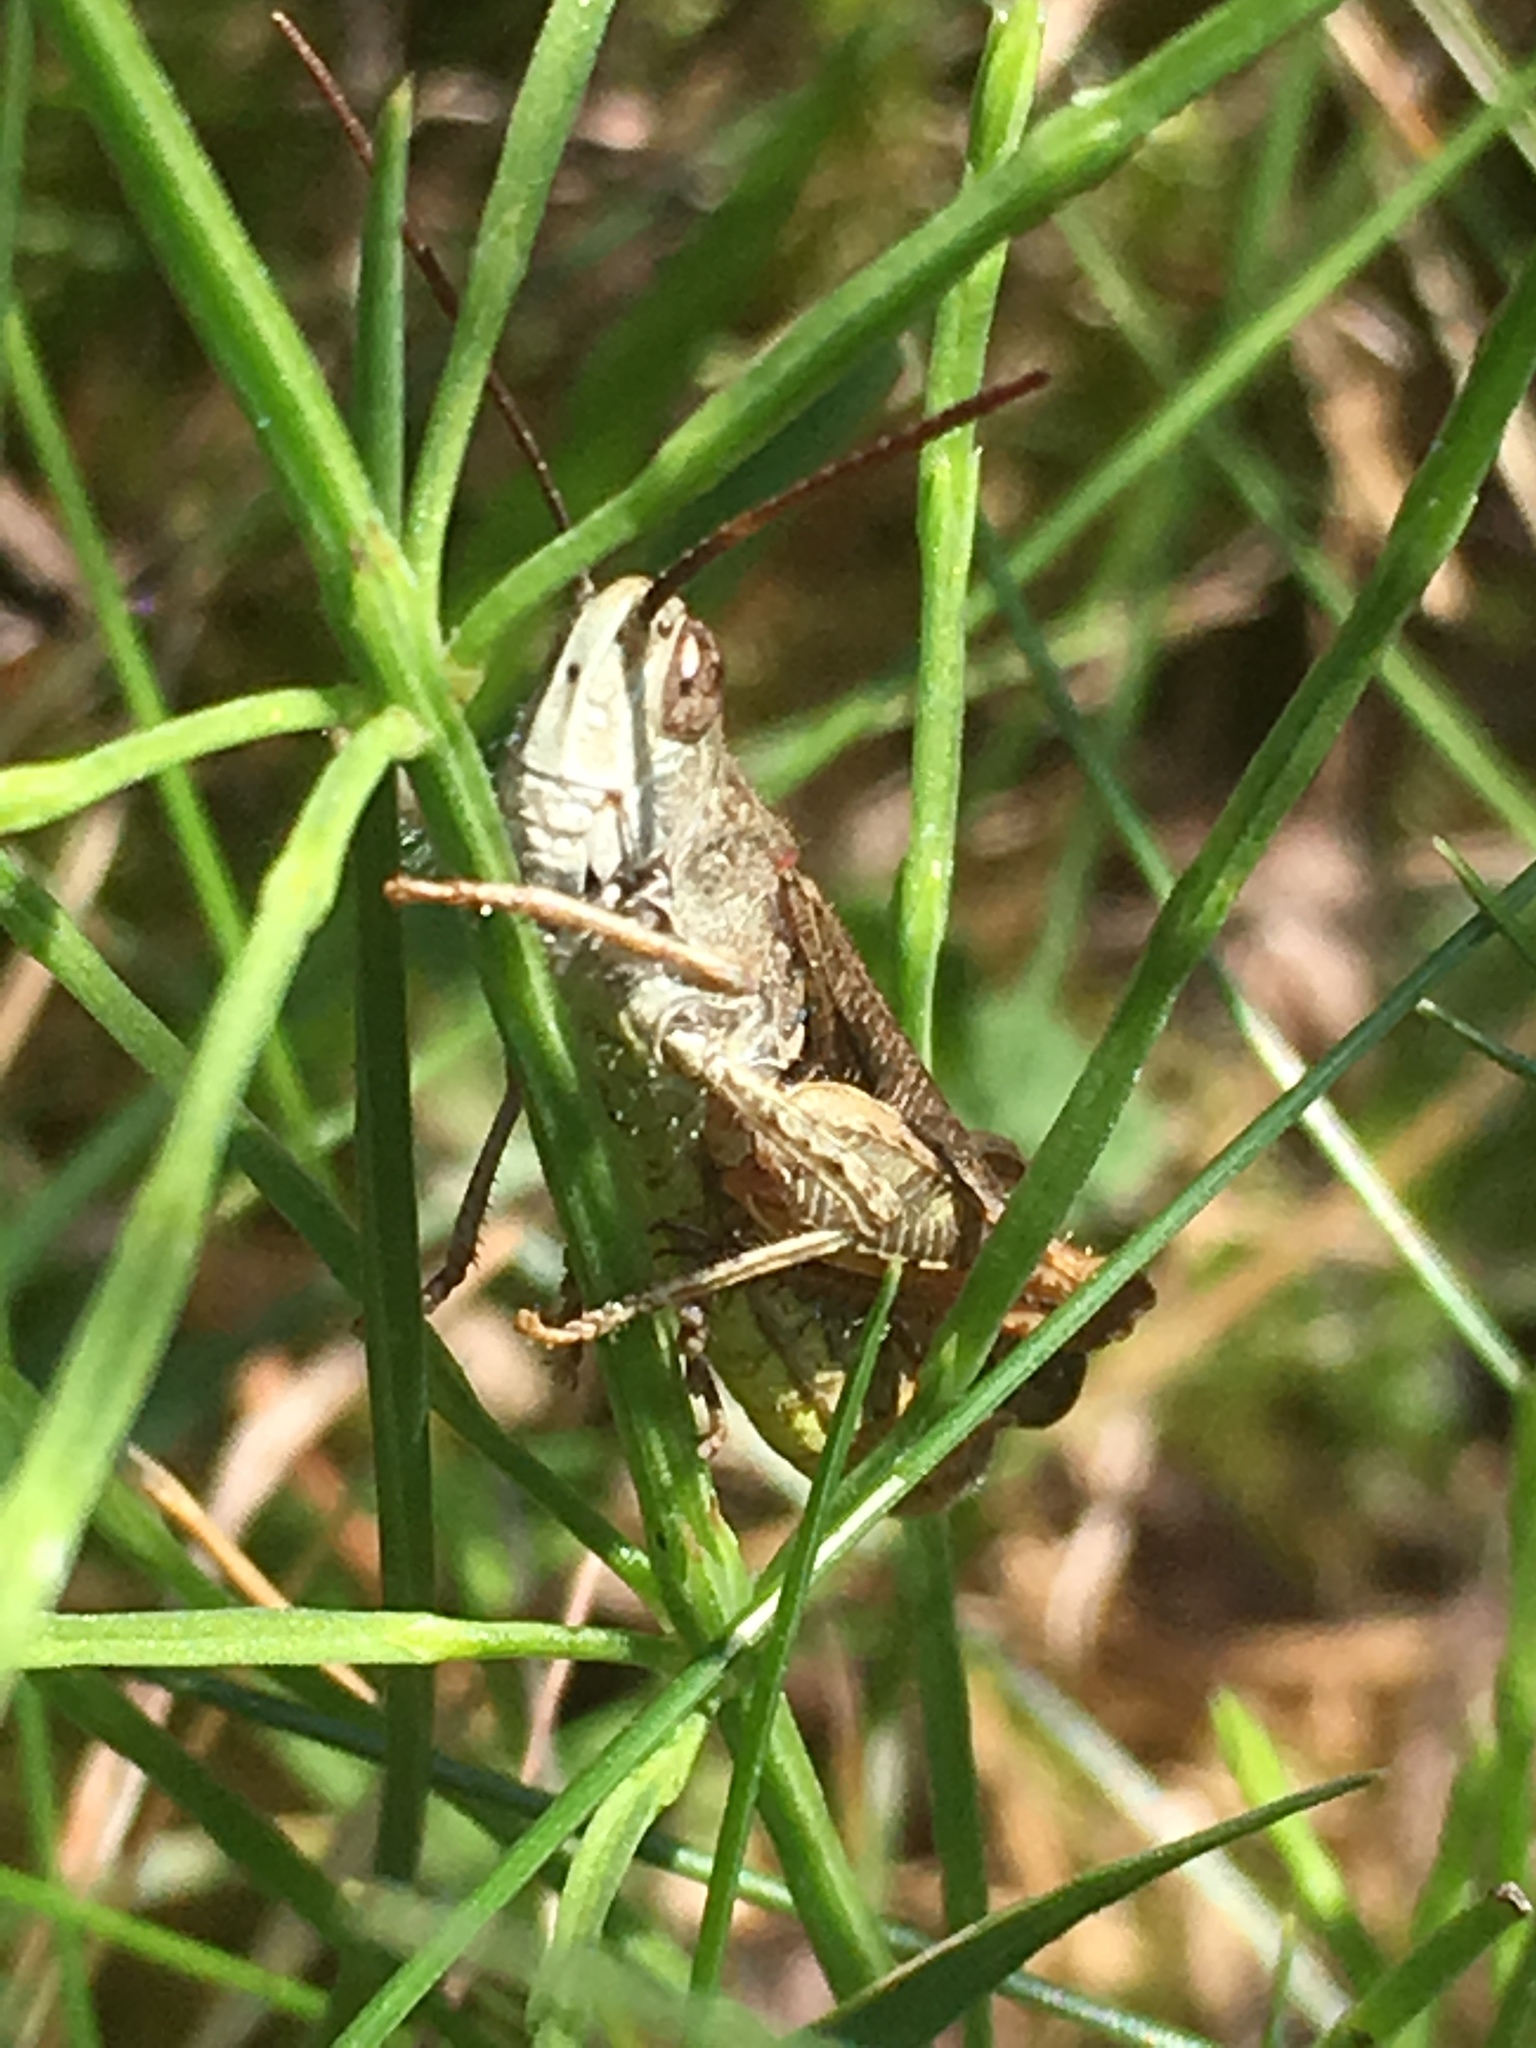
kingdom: Animalia
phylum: Arthropoda
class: Insecta
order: Orthoptera
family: Acrididae
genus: Chorthippus
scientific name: Chorthippus biguttulus
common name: Bow-winged grasshopper
